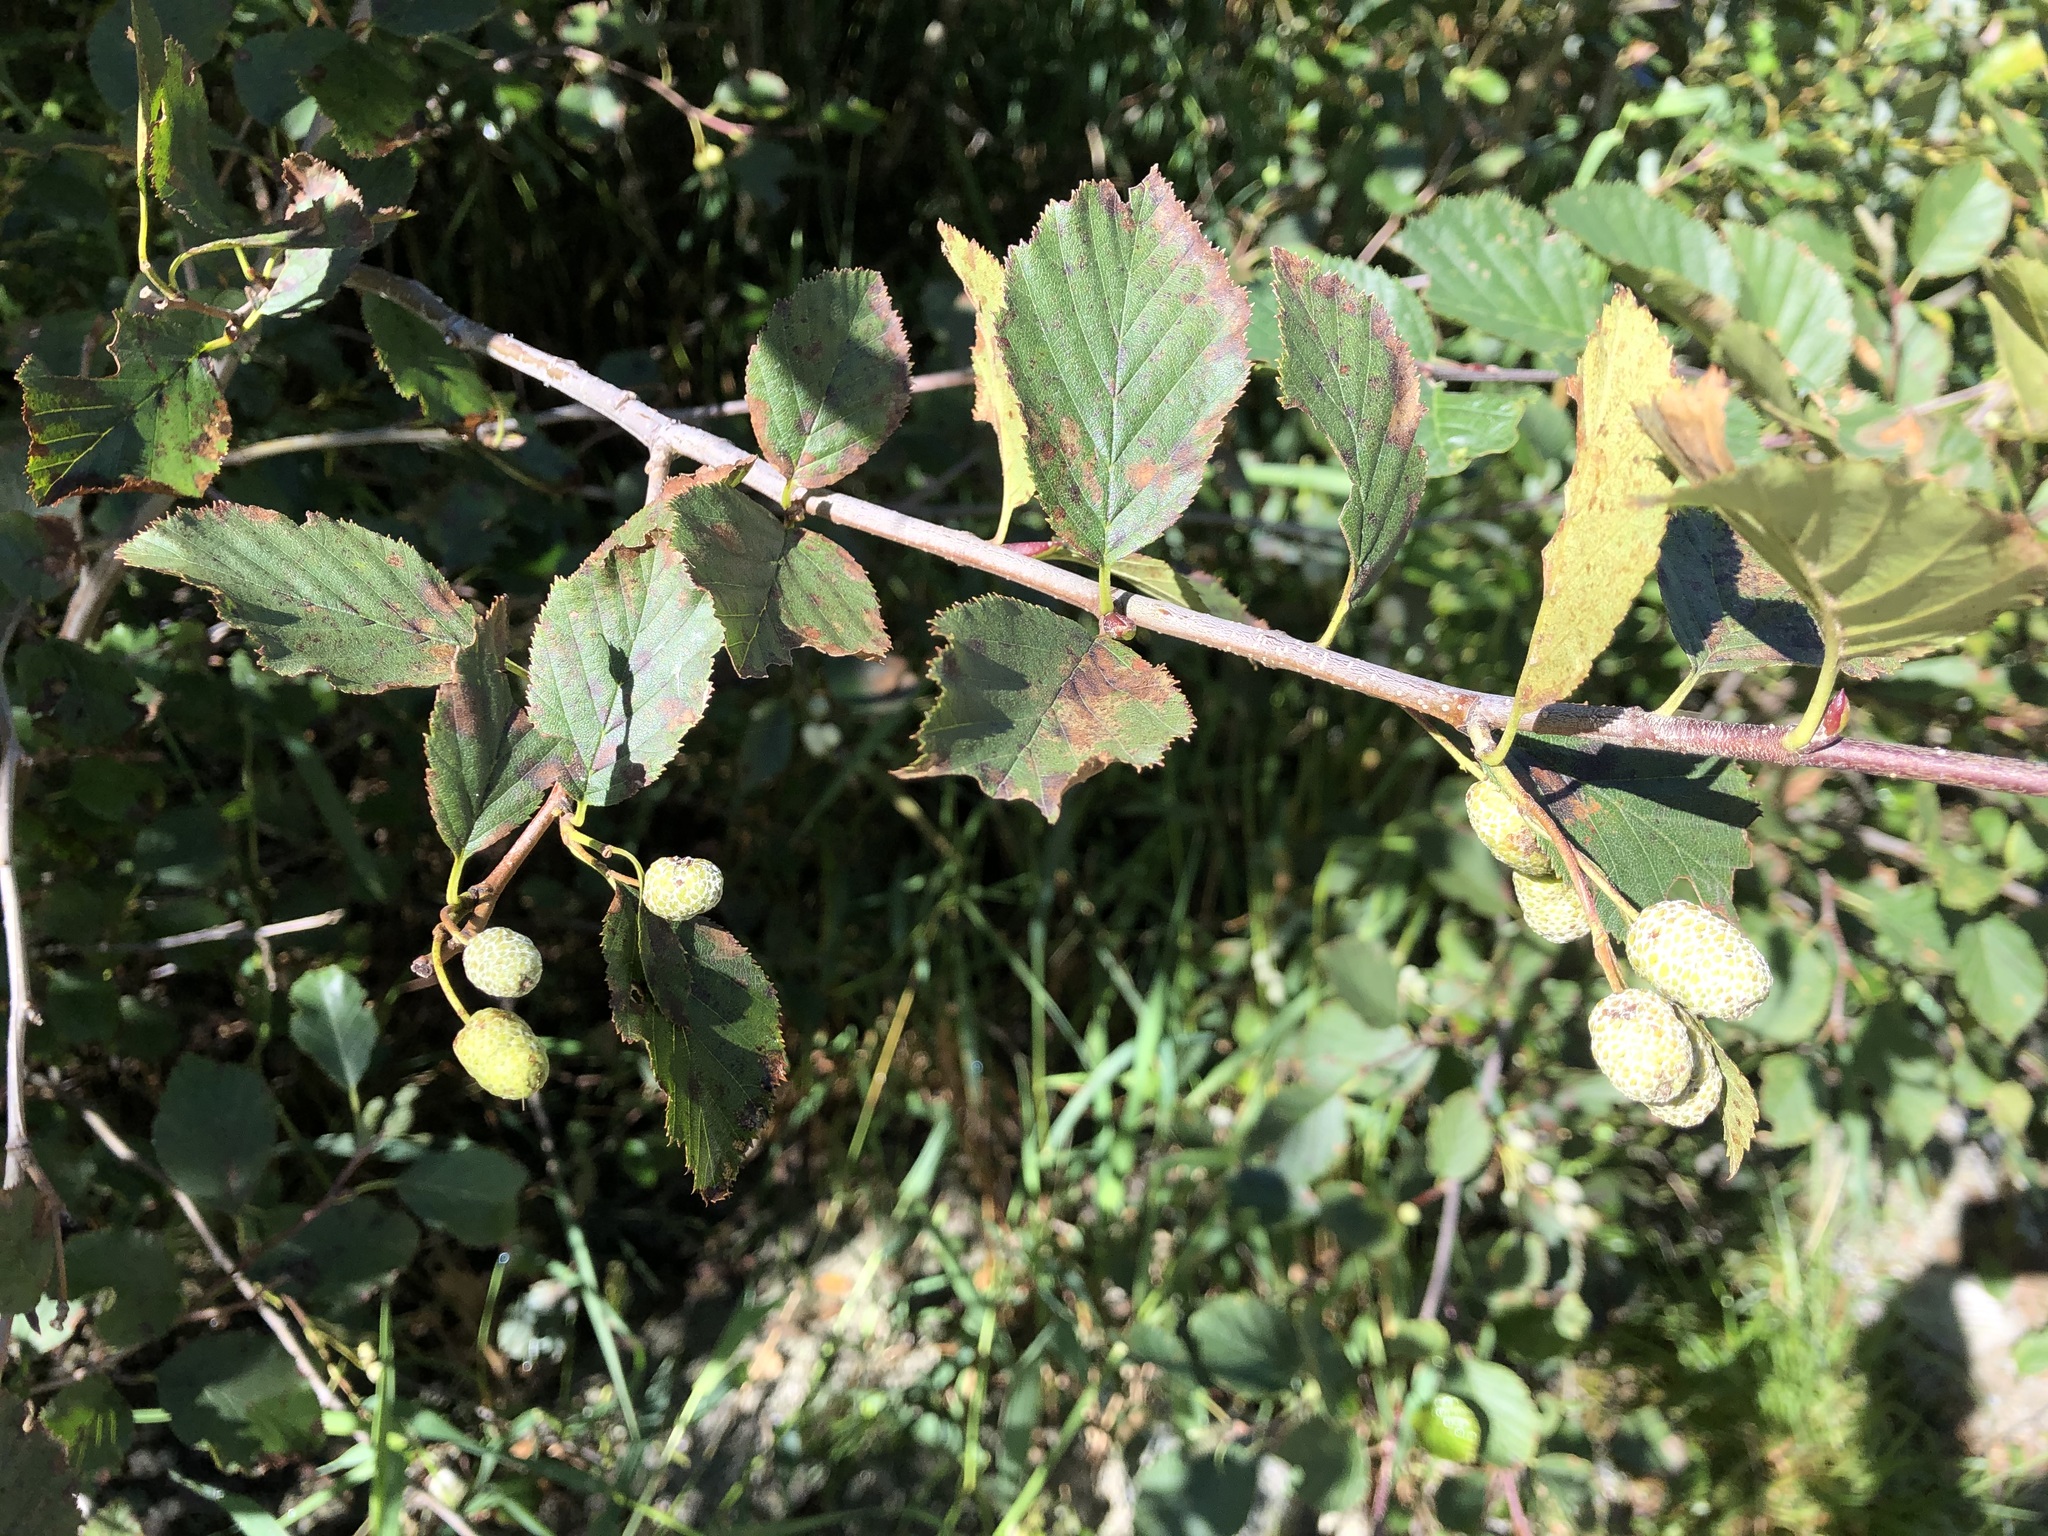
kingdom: Plantae
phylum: Tracheophyta
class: Magnoliopsida
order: Fagales
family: Betulaceae
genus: Alnus
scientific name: Alnus alnobetula
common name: Green alder
